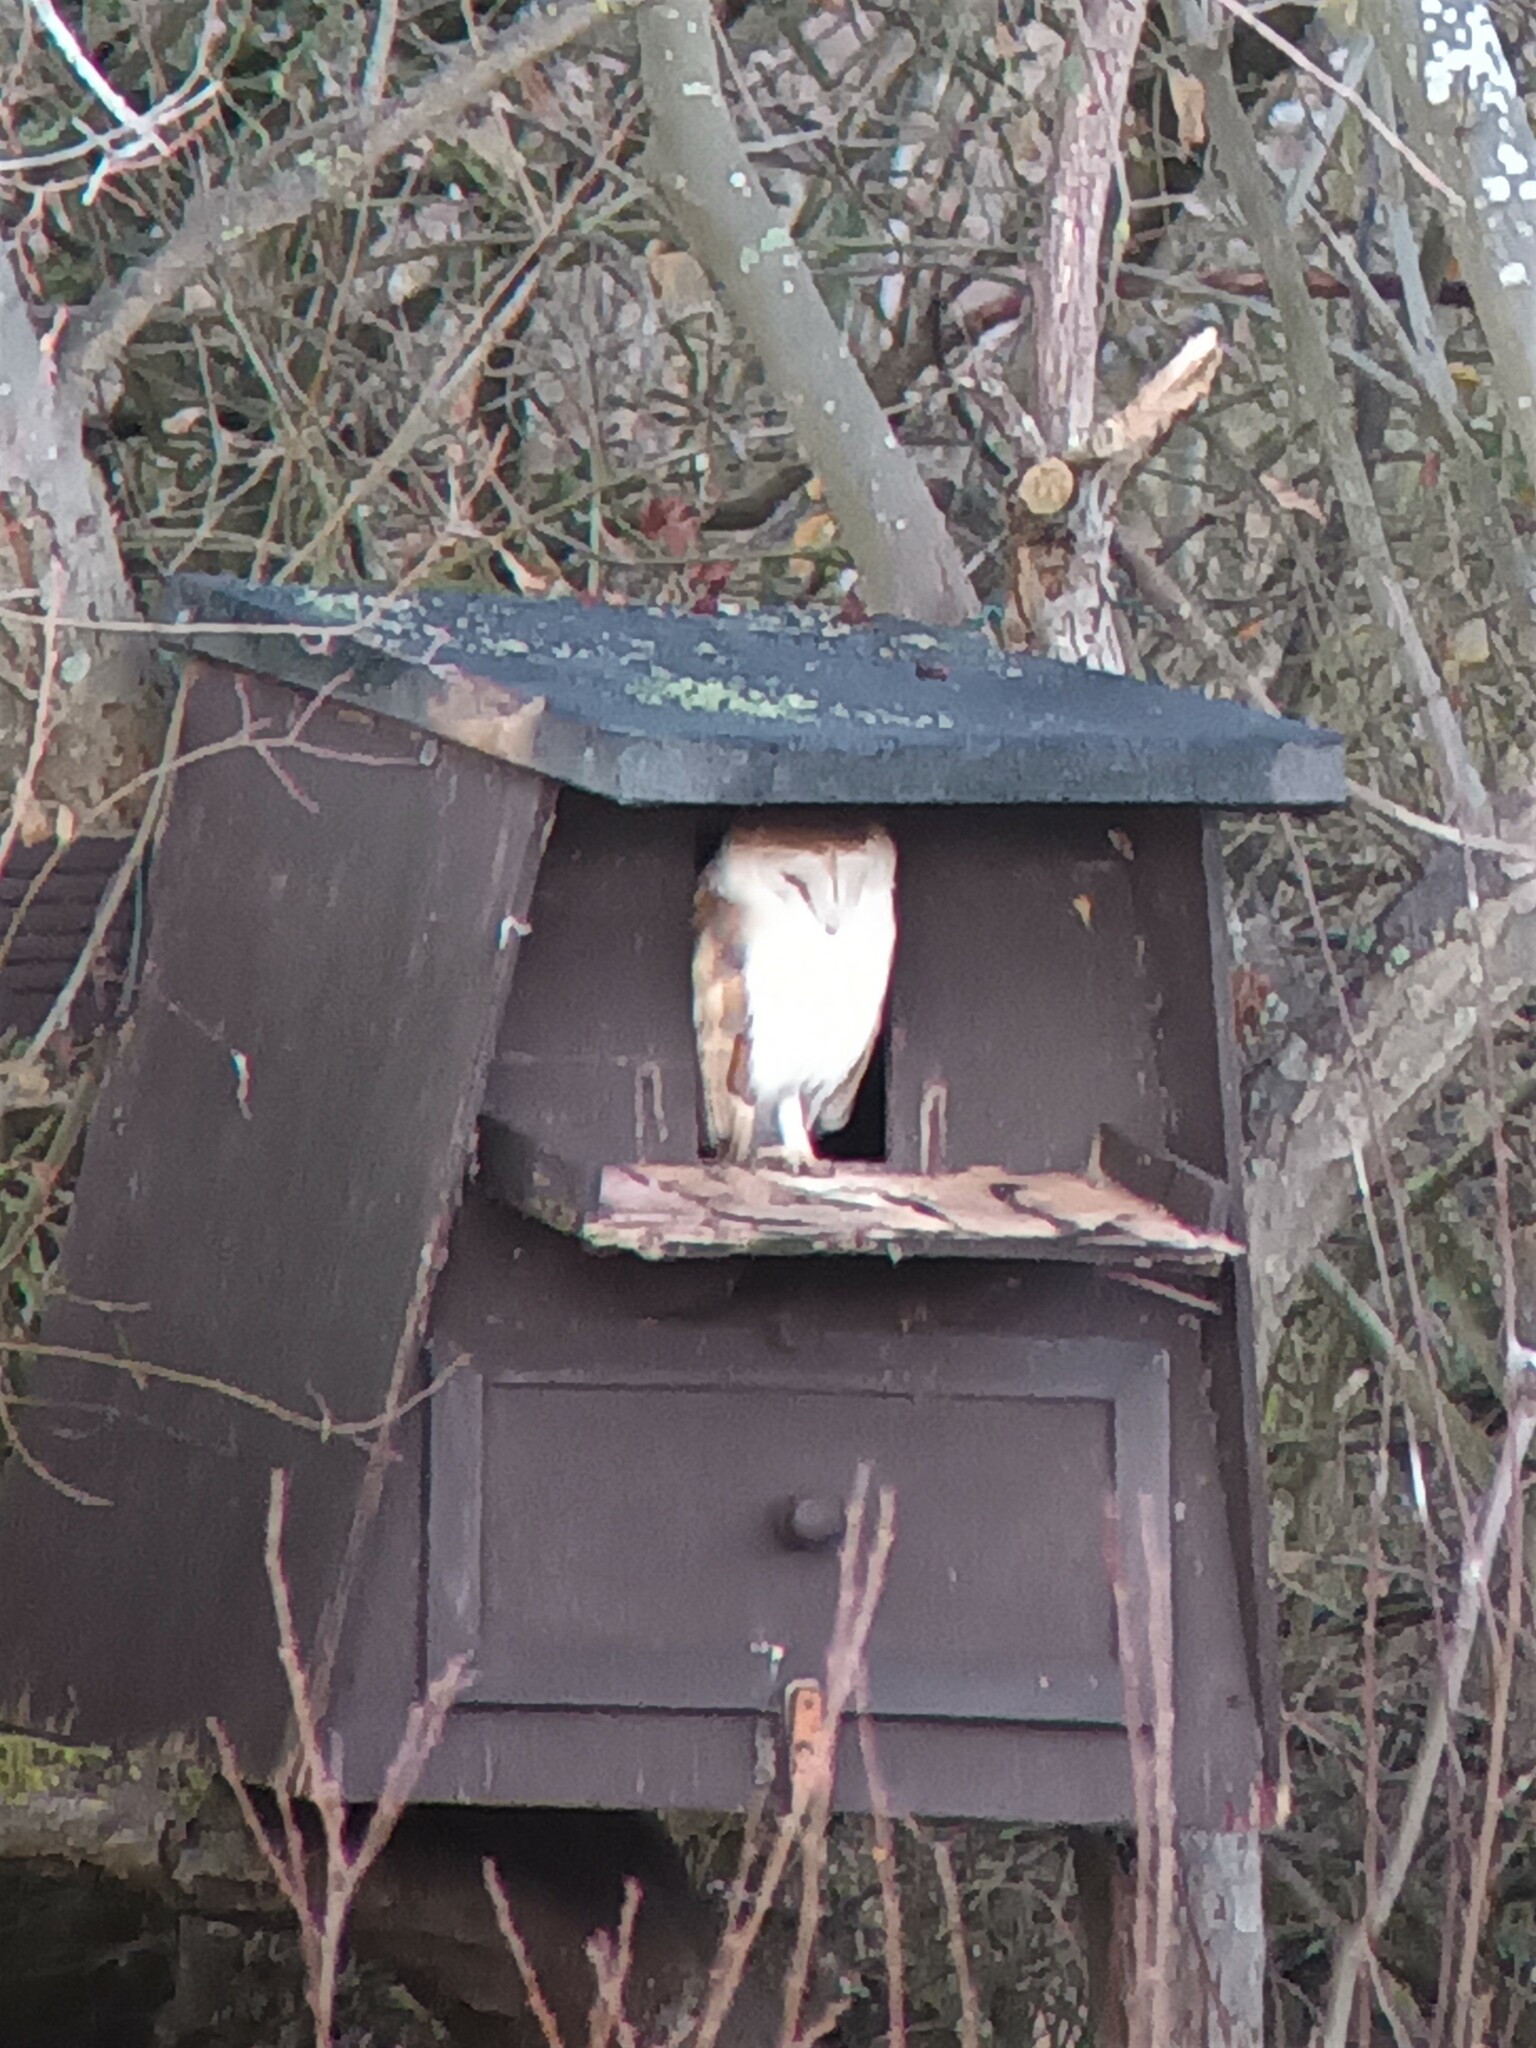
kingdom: Animalia
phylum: Chordata
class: Aves
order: Strigiformes
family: Tytonidae
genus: Tyto
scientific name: Tyto alba
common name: Barn owl
